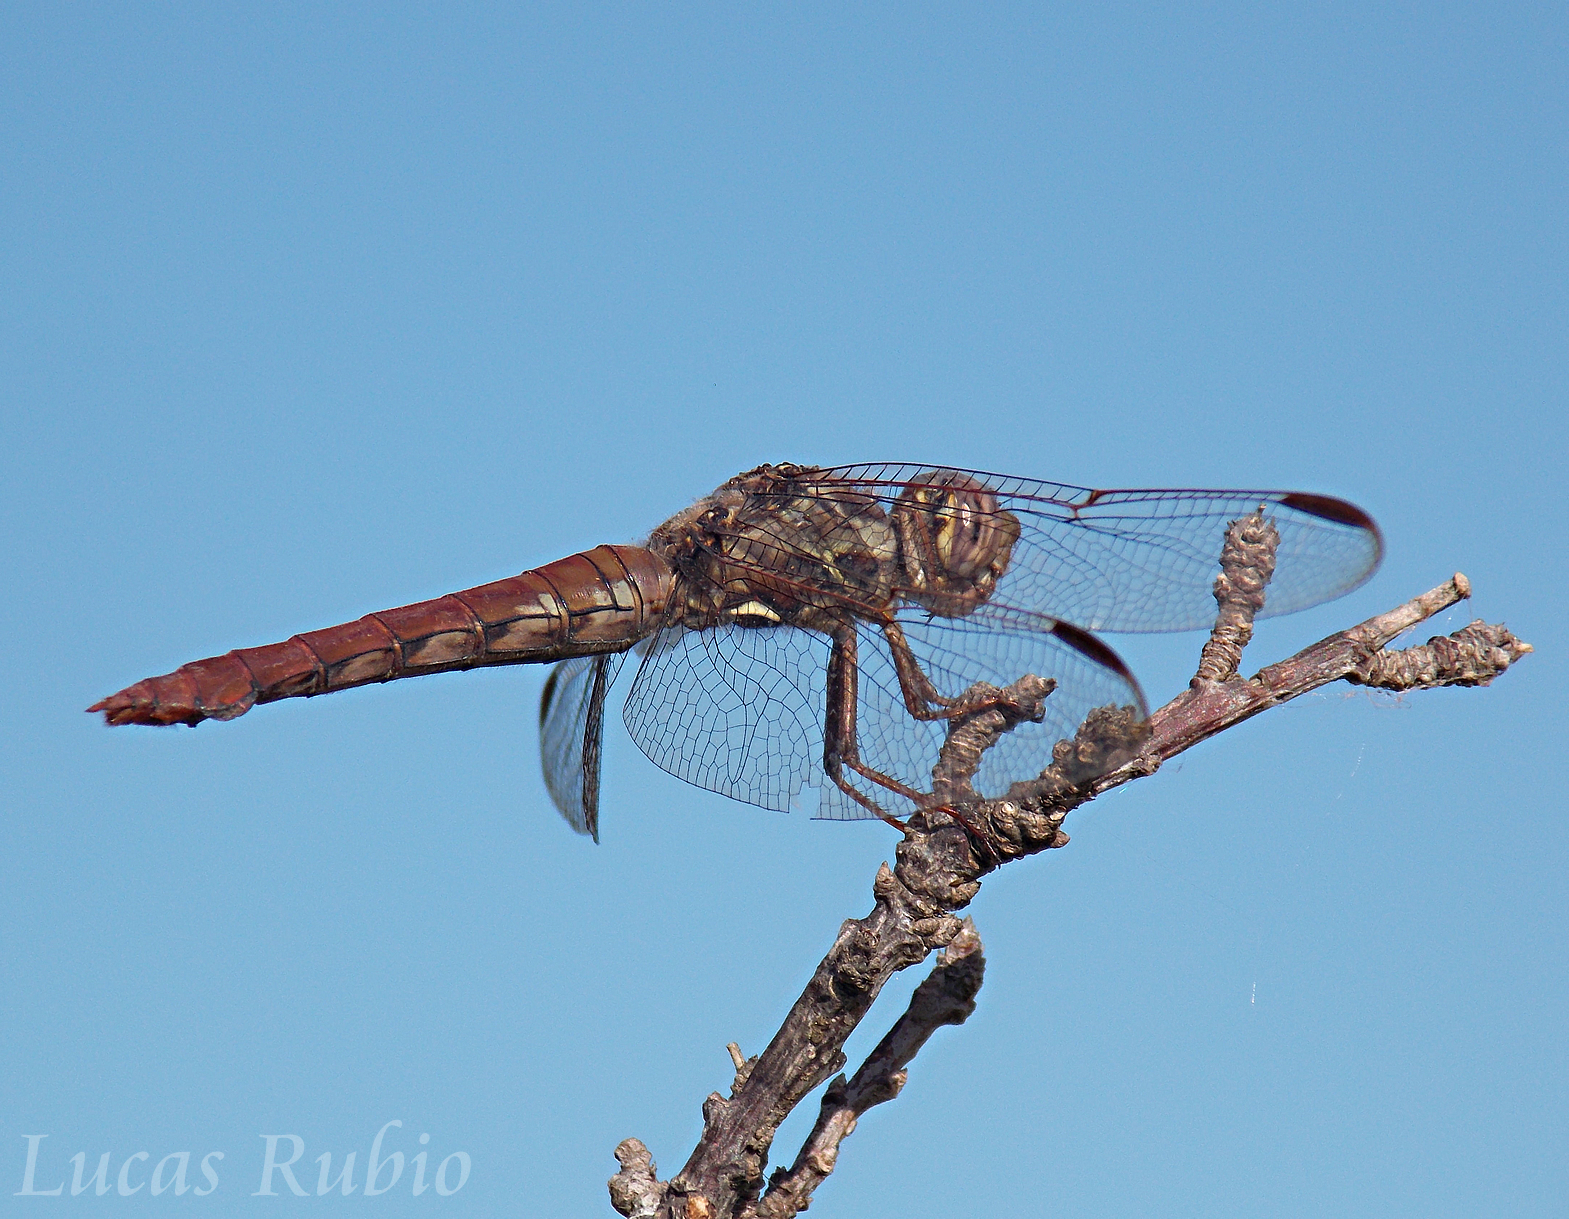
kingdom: Animalia
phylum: Arthropoda
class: Insecta
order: Odonata
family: Libellulidae
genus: Orthemis
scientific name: Orthemis nodiplaga
